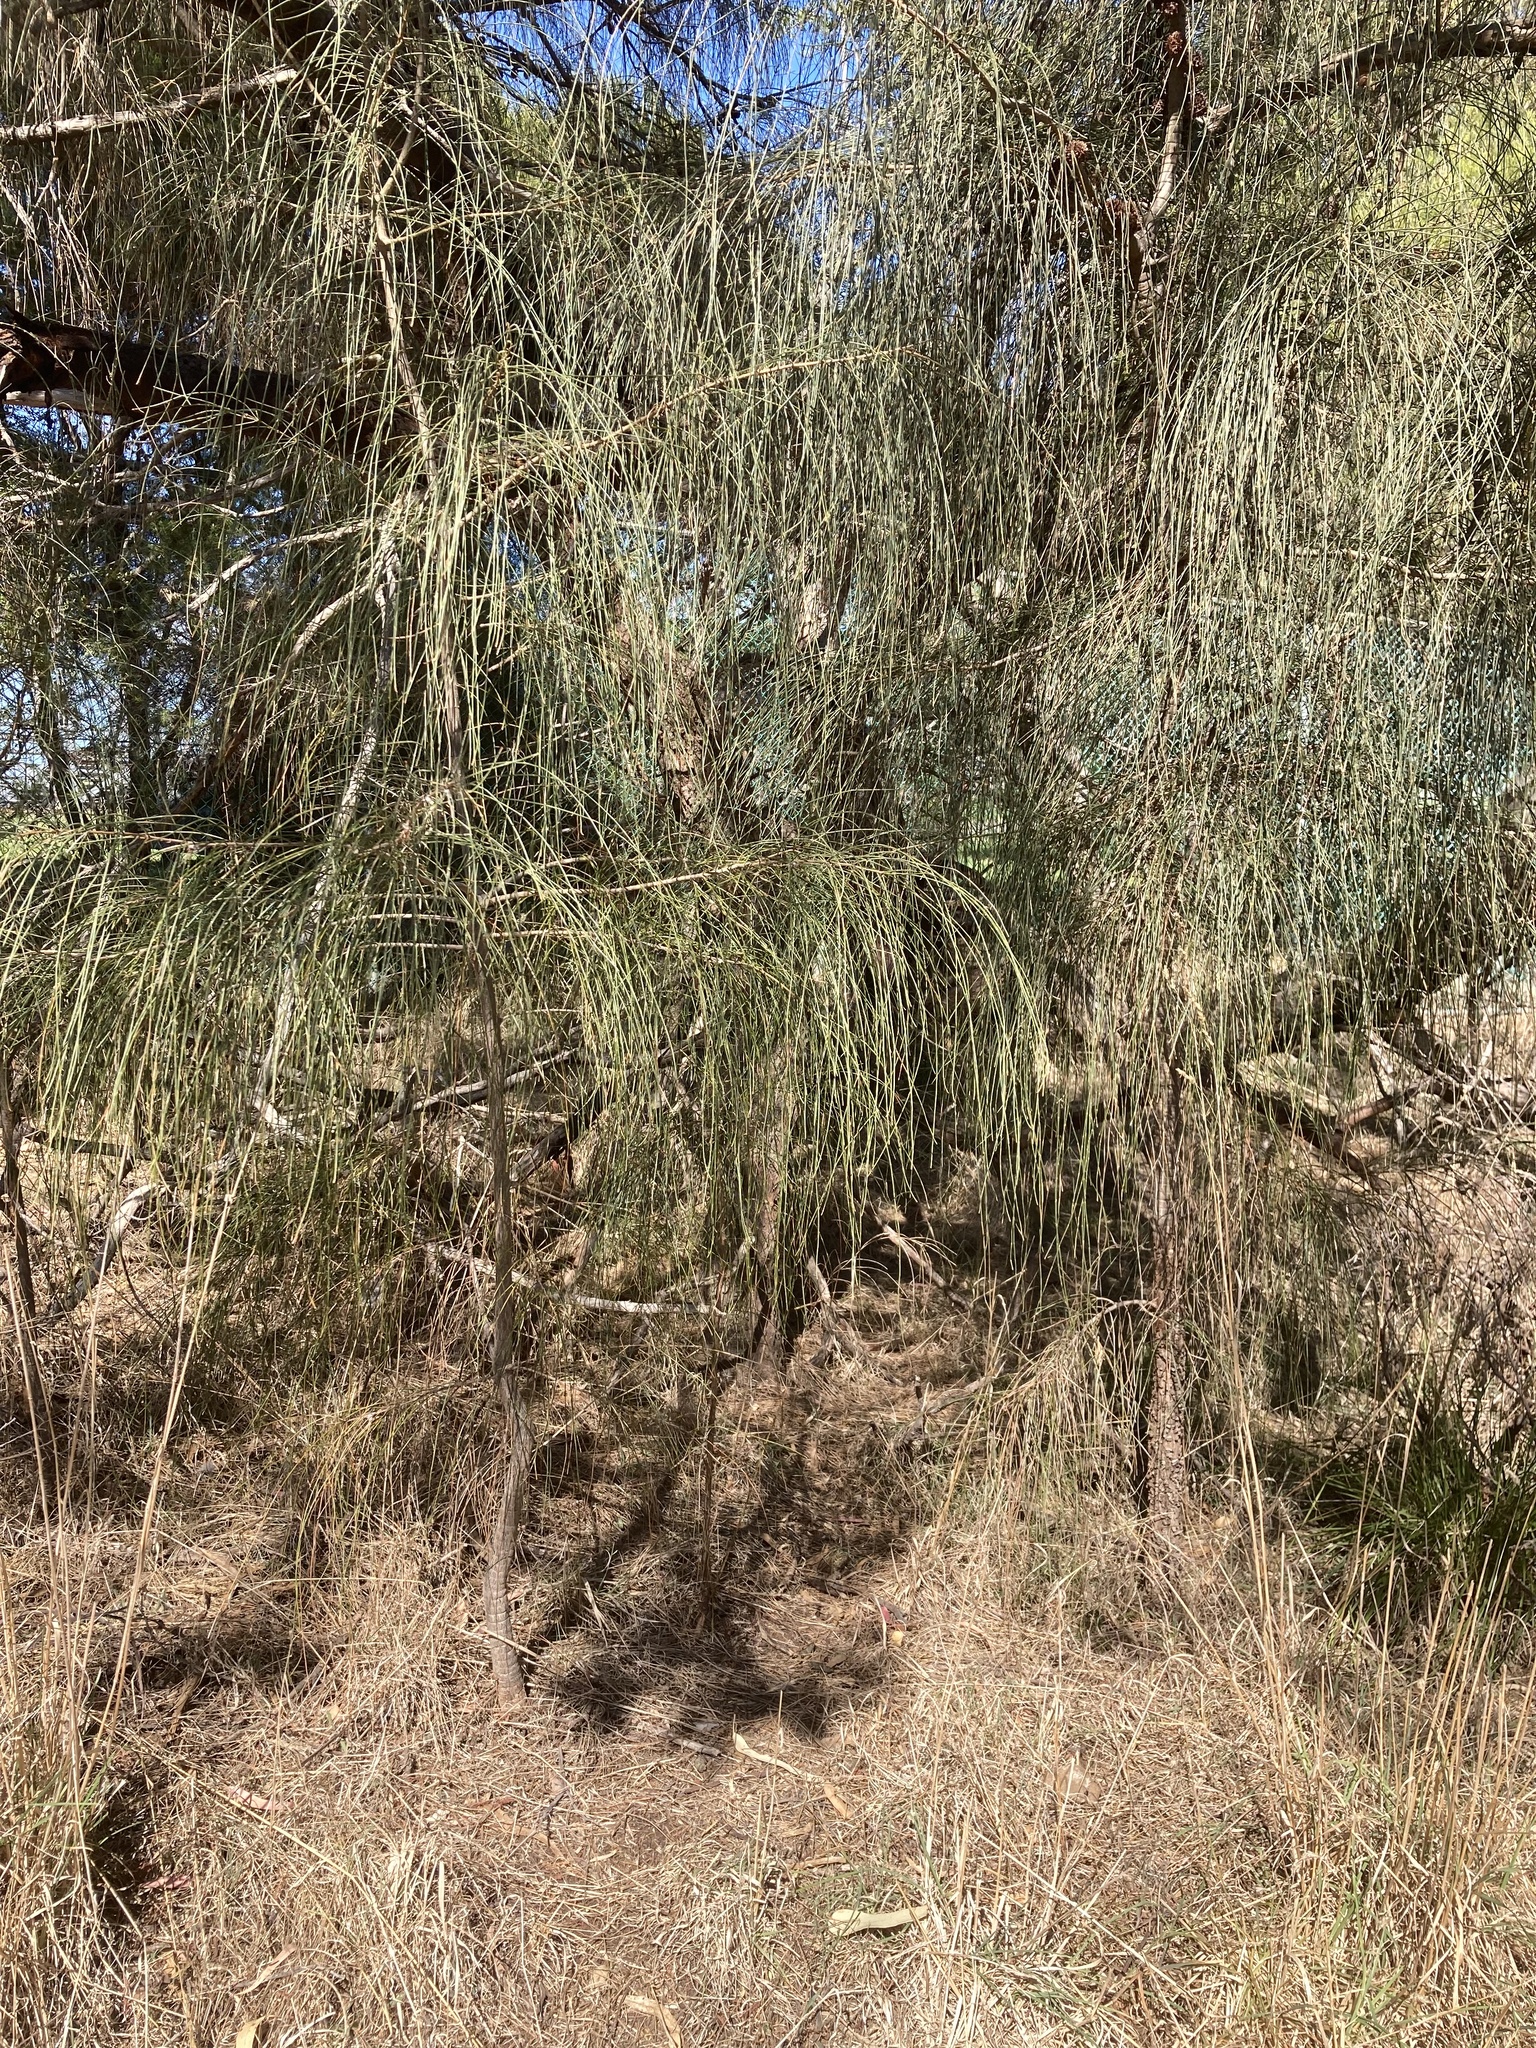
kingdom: Plantae
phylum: Tracheophyta
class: Magnoliopsida
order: Fagales
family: Casuarinaceae
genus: Allocasuarina
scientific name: Allocasuarina verticillata
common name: Drooping she-oak
